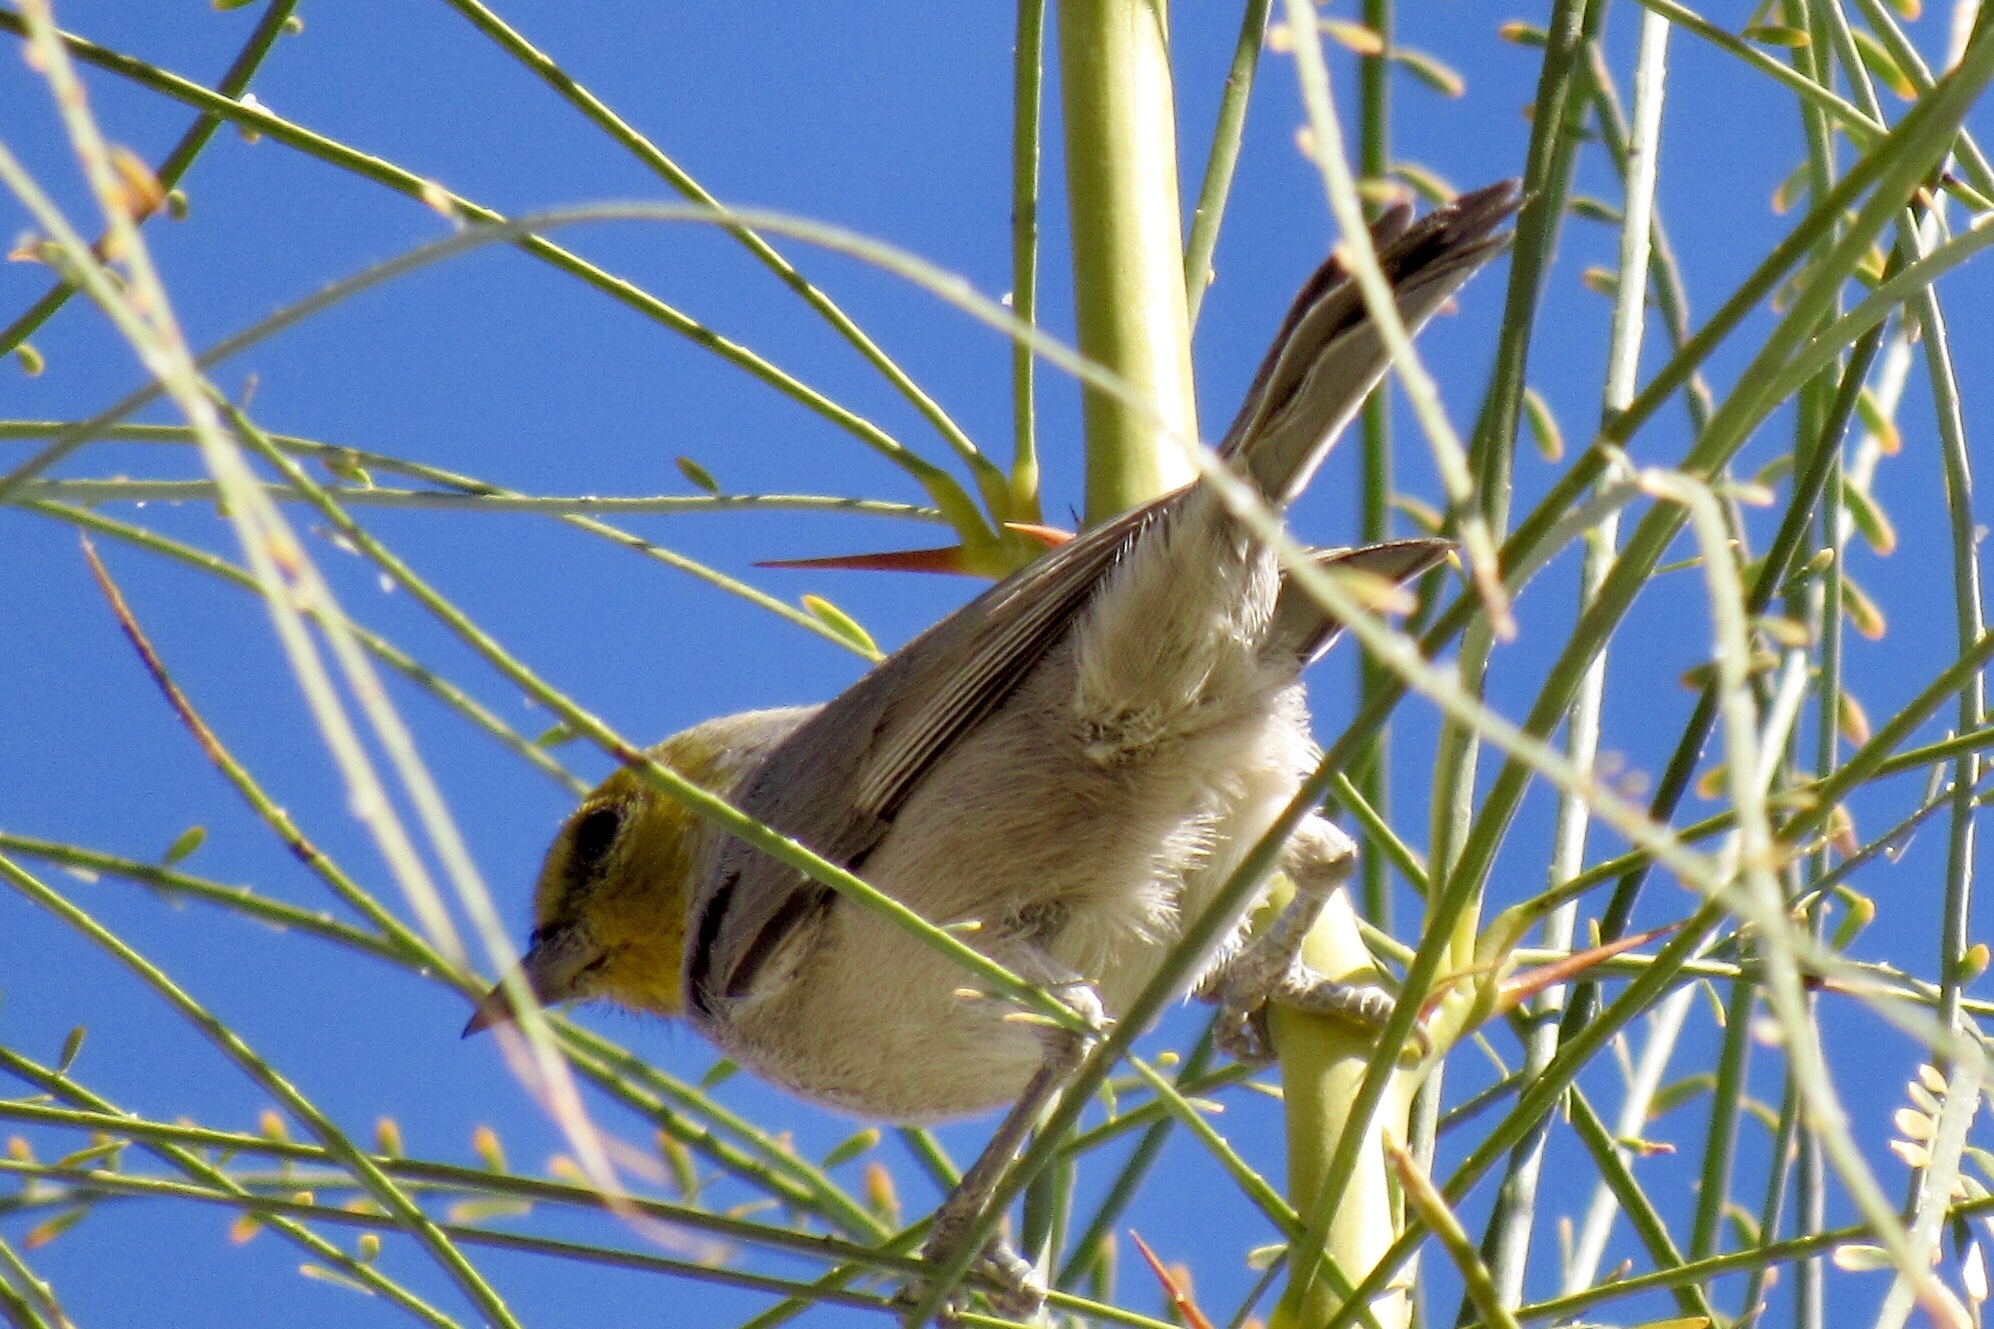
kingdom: Animalia
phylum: Chordata
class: Aves
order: Passeriformes
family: Remizidae
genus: Auriparus
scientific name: Auriparus flaviceps
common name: Verdin
